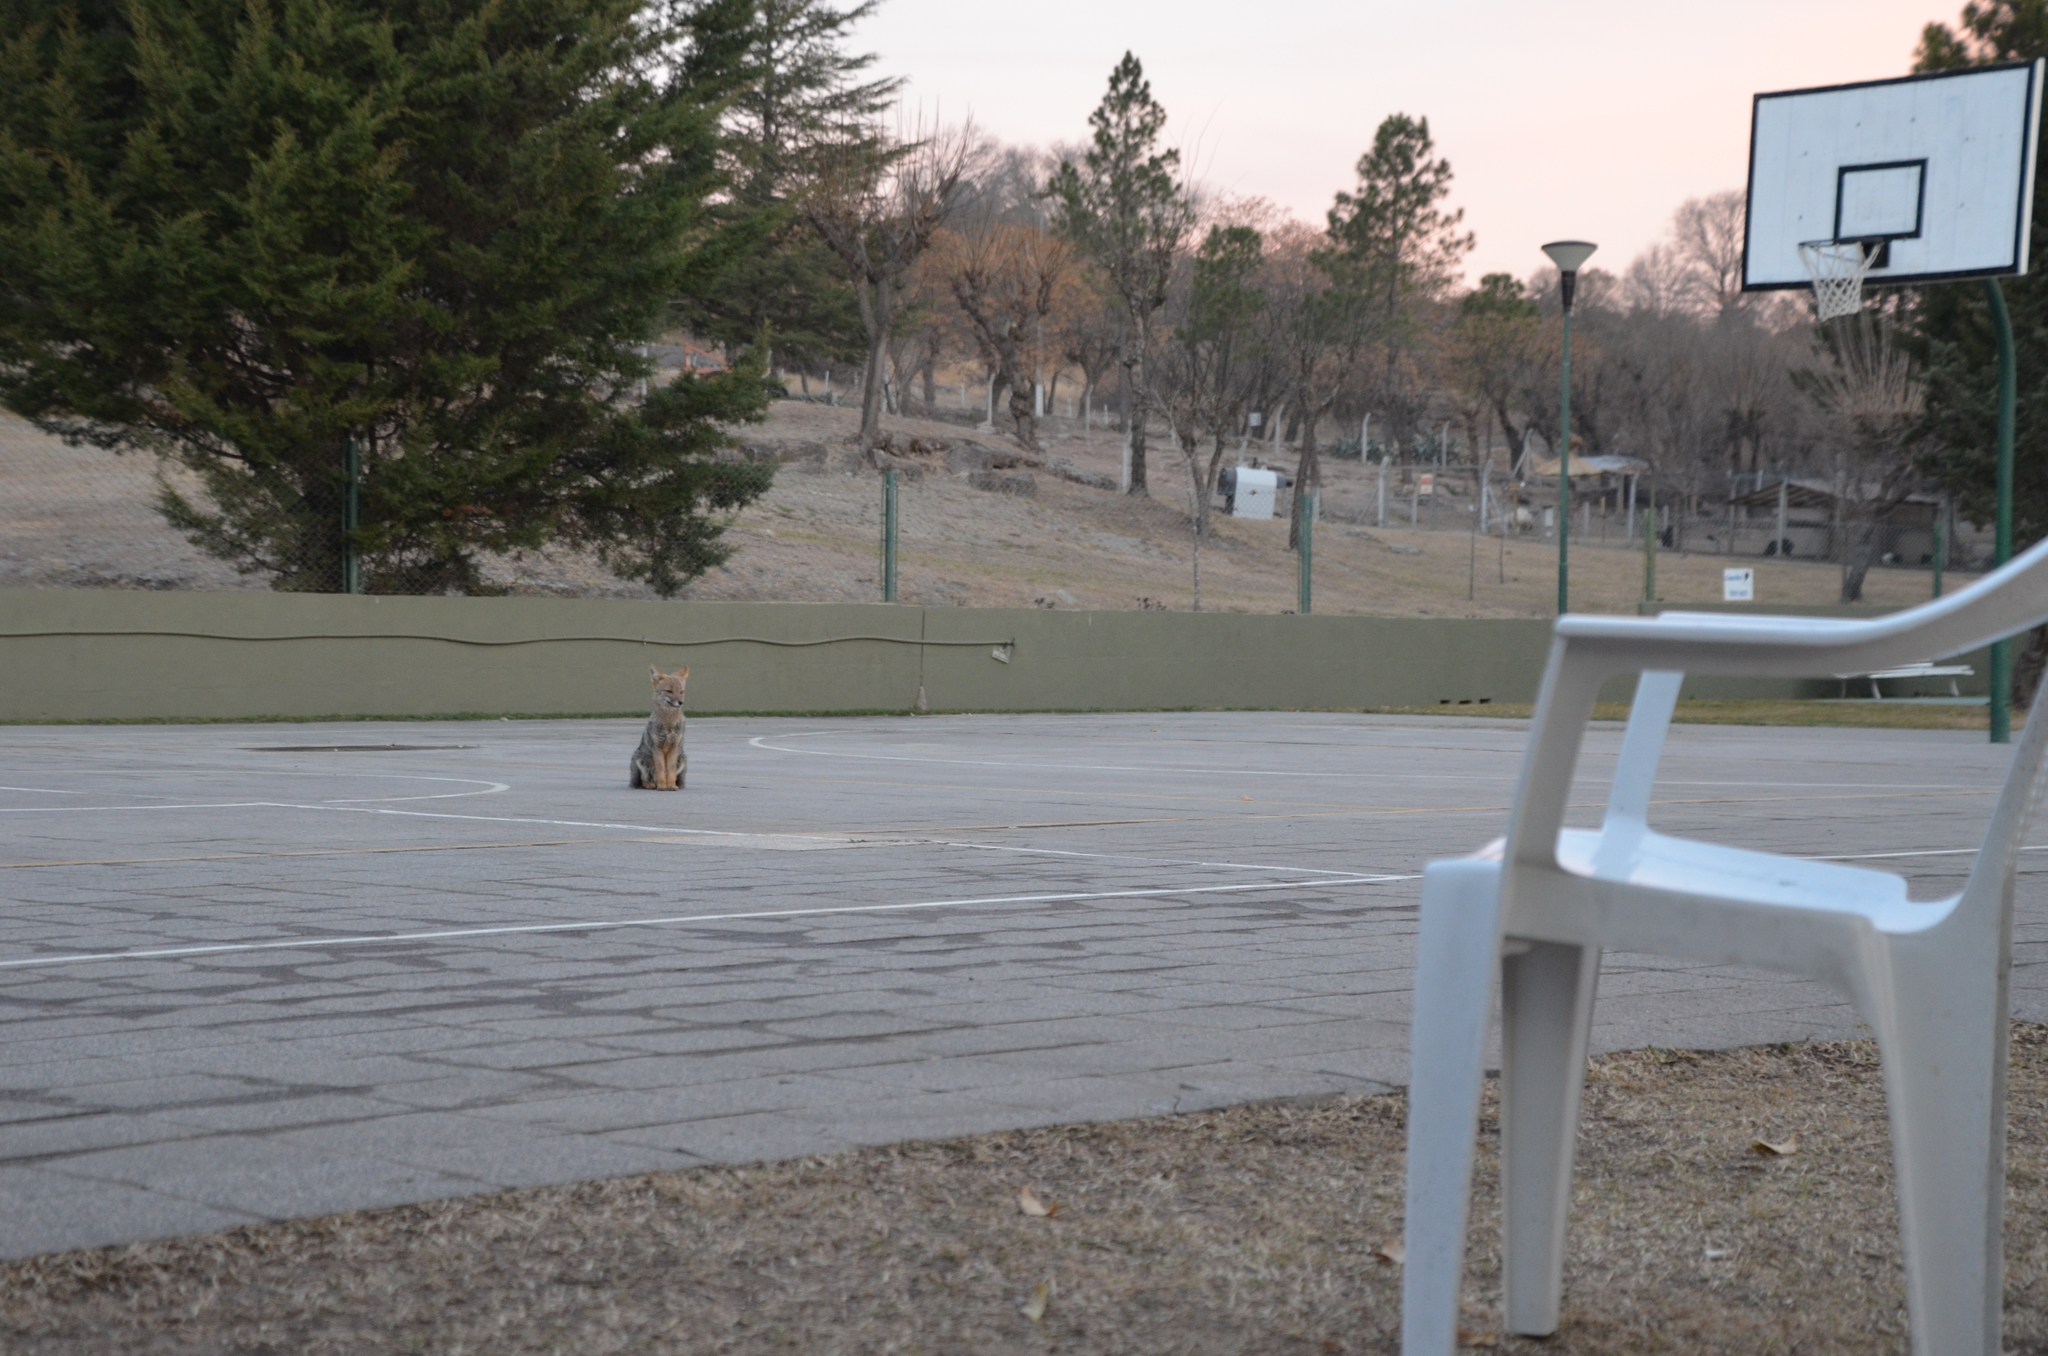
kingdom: Animalia
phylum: Chordata
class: Mammalia
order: Carnivora
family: Canidae
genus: Lycalopex
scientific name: Lycalopex gymnocercus
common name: Pampas fox
